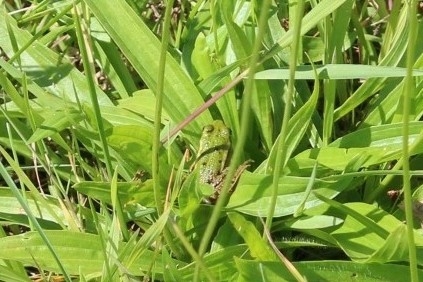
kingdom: Animalia
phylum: Chordata
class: Amphibia
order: Anura
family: Ranidae
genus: Pelophylax
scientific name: Pelophylax
